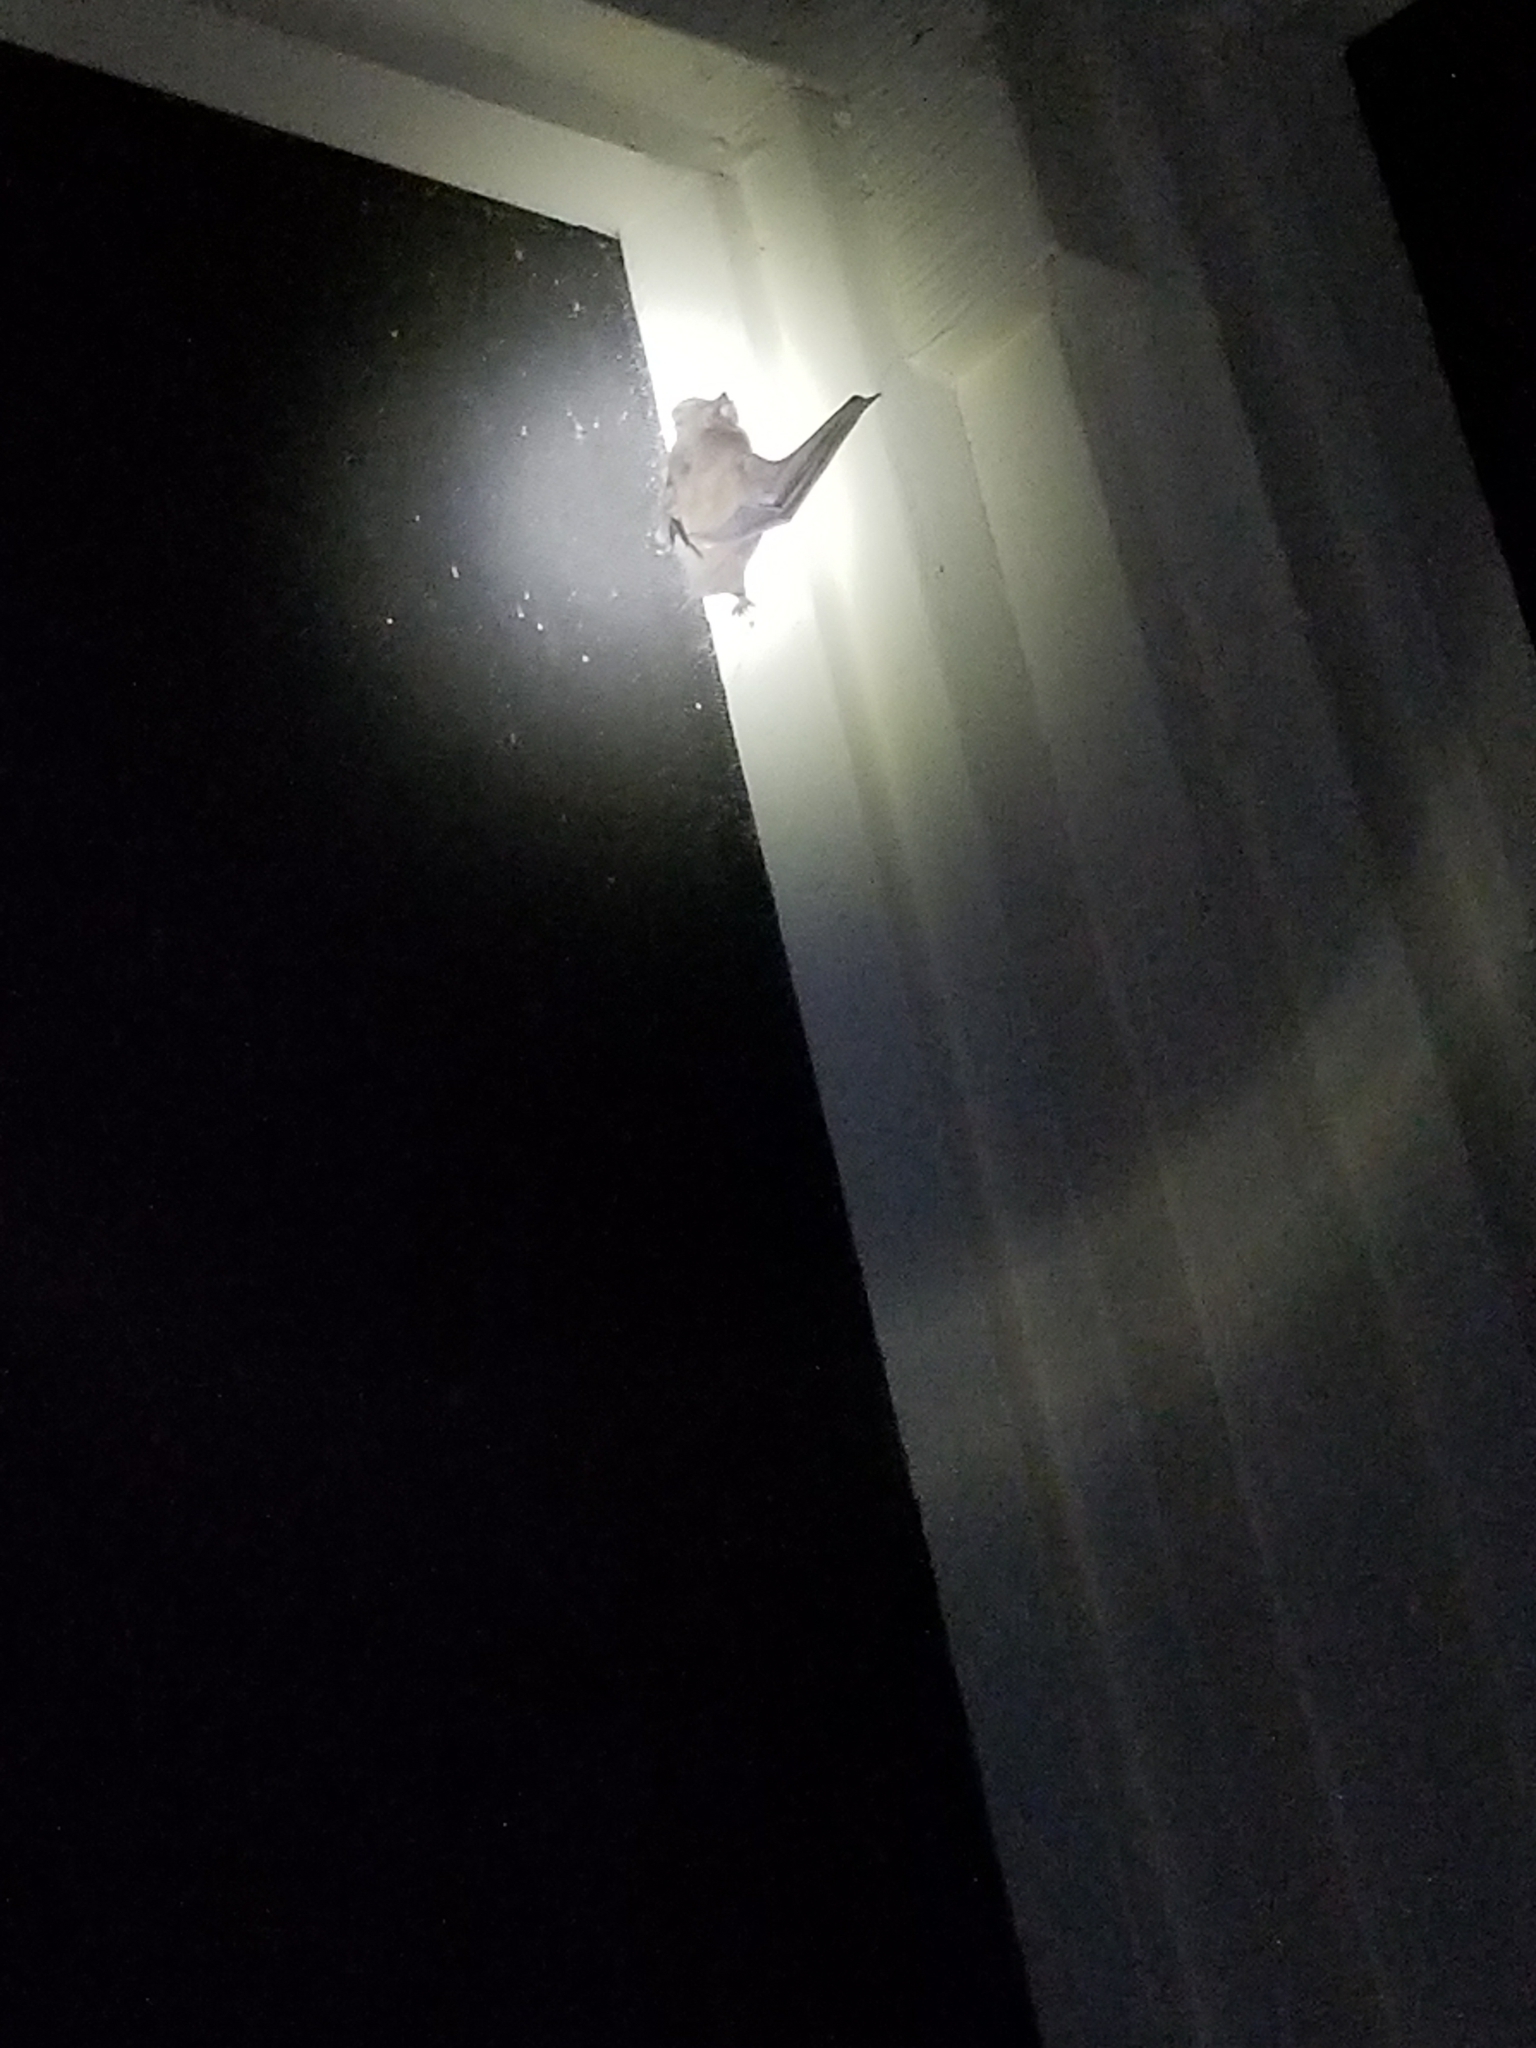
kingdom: Animalia
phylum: Chordata
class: Mammalia
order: Chiroptera
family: Molossidae
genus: Tadarida
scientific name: Tadarida brasiliensis
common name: Mexican free-tailed bat
